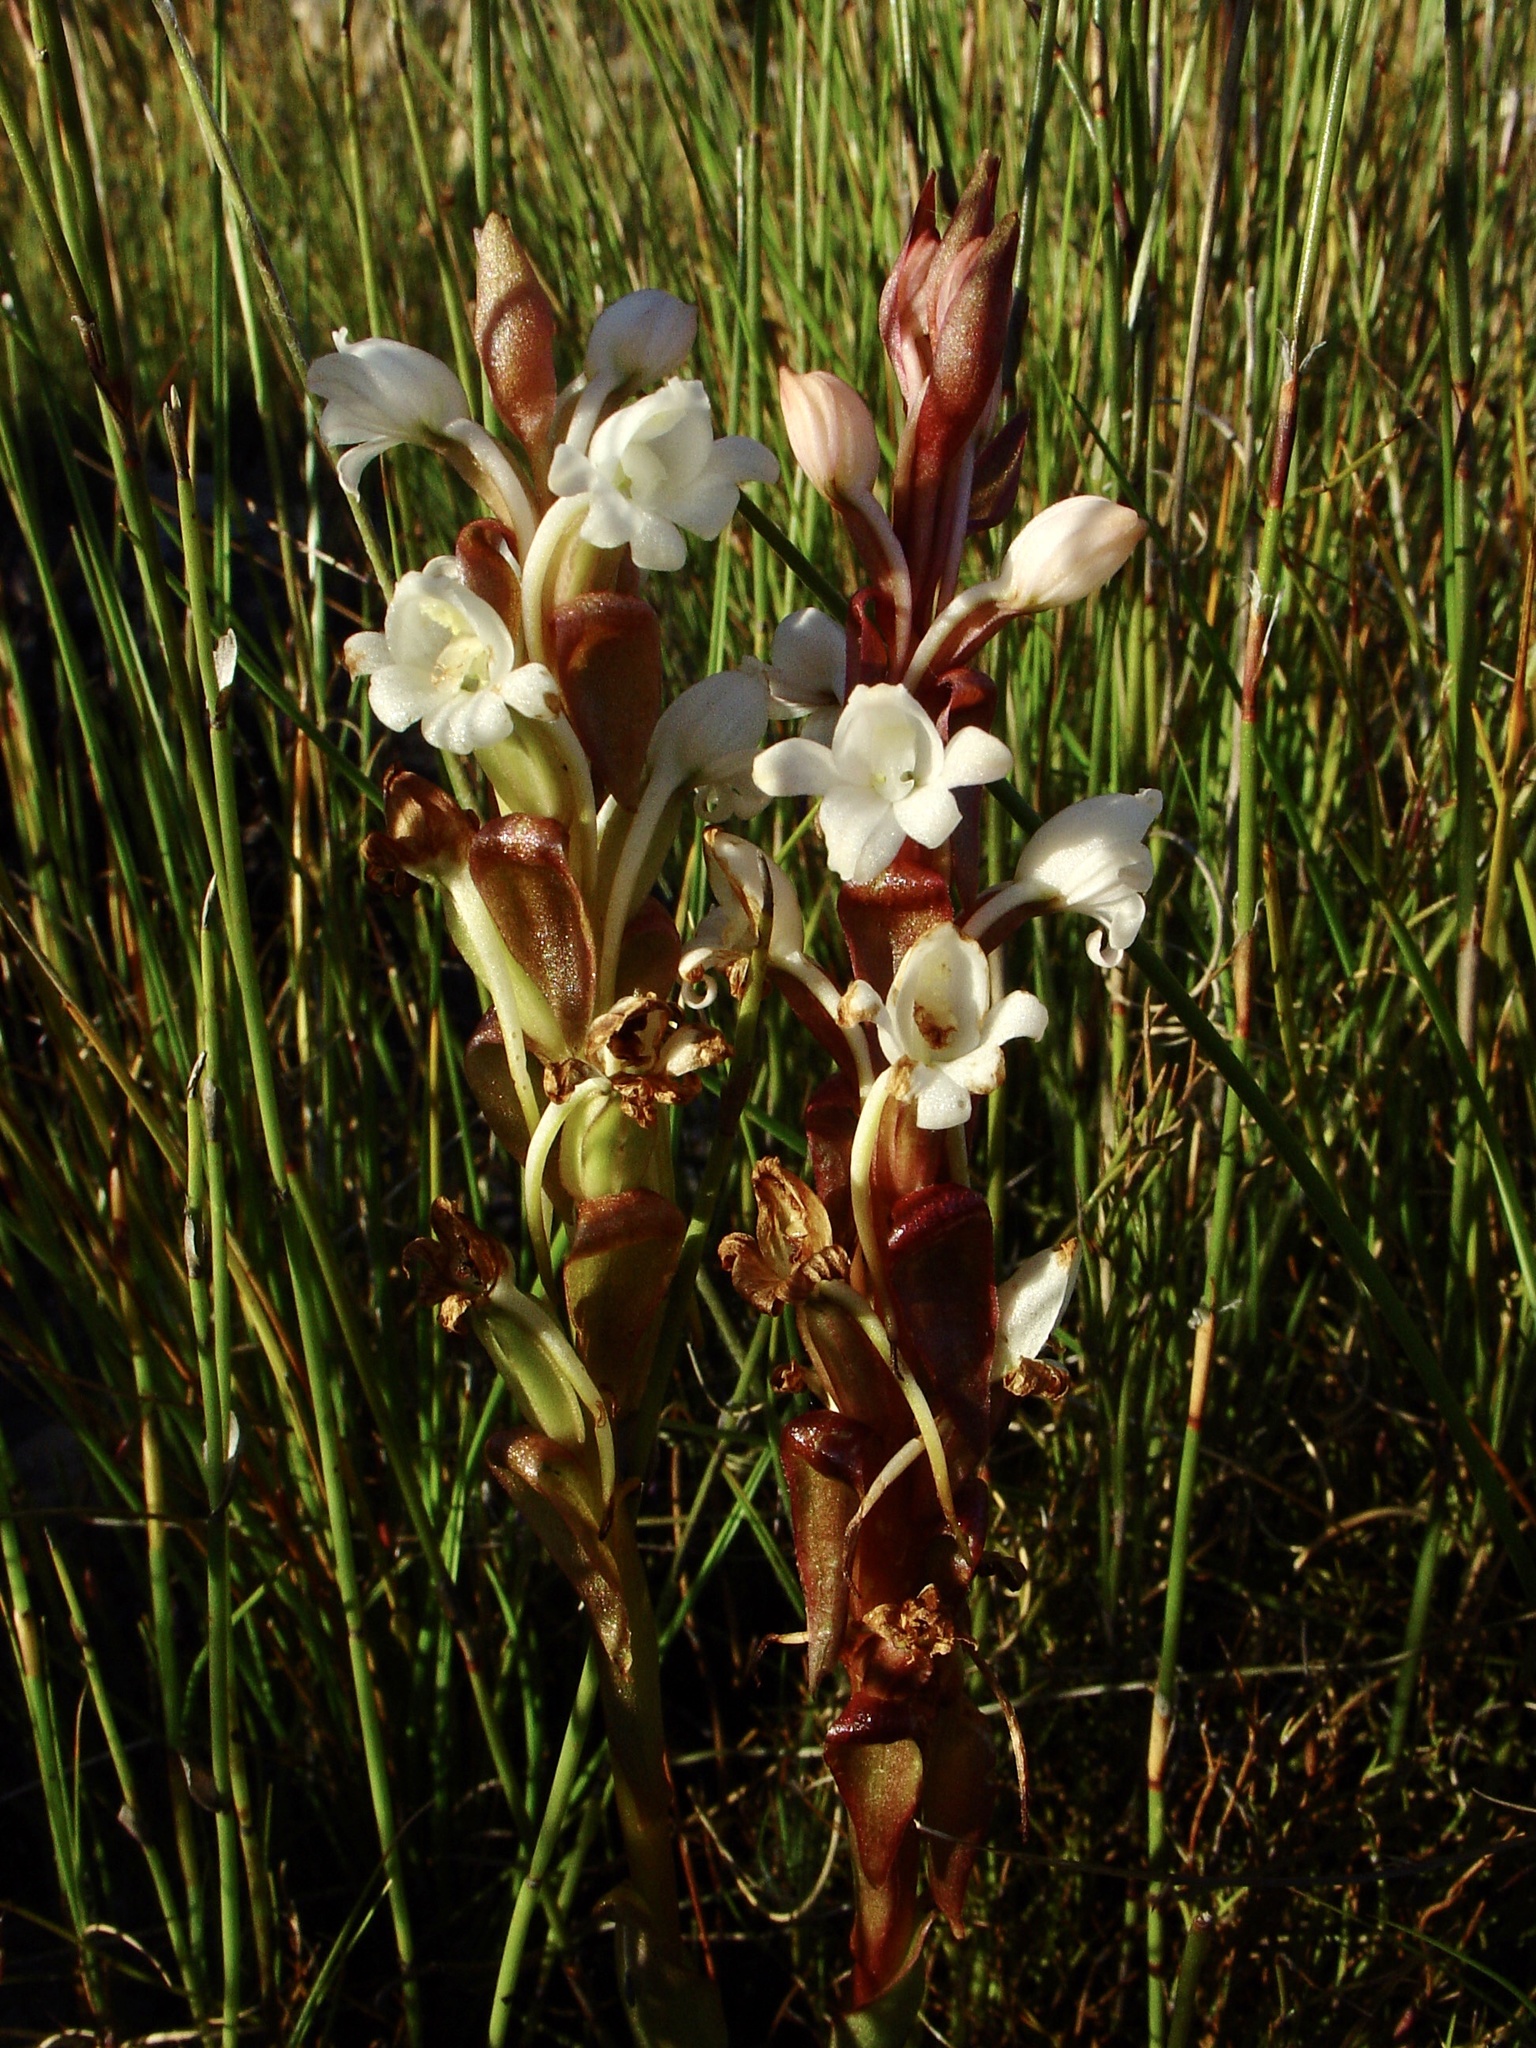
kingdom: Plantae
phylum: Tracheophyta
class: Liliopsida
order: Asparagales
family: Orchidaceae
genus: Satyrium
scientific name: Satyrium acuminatum
